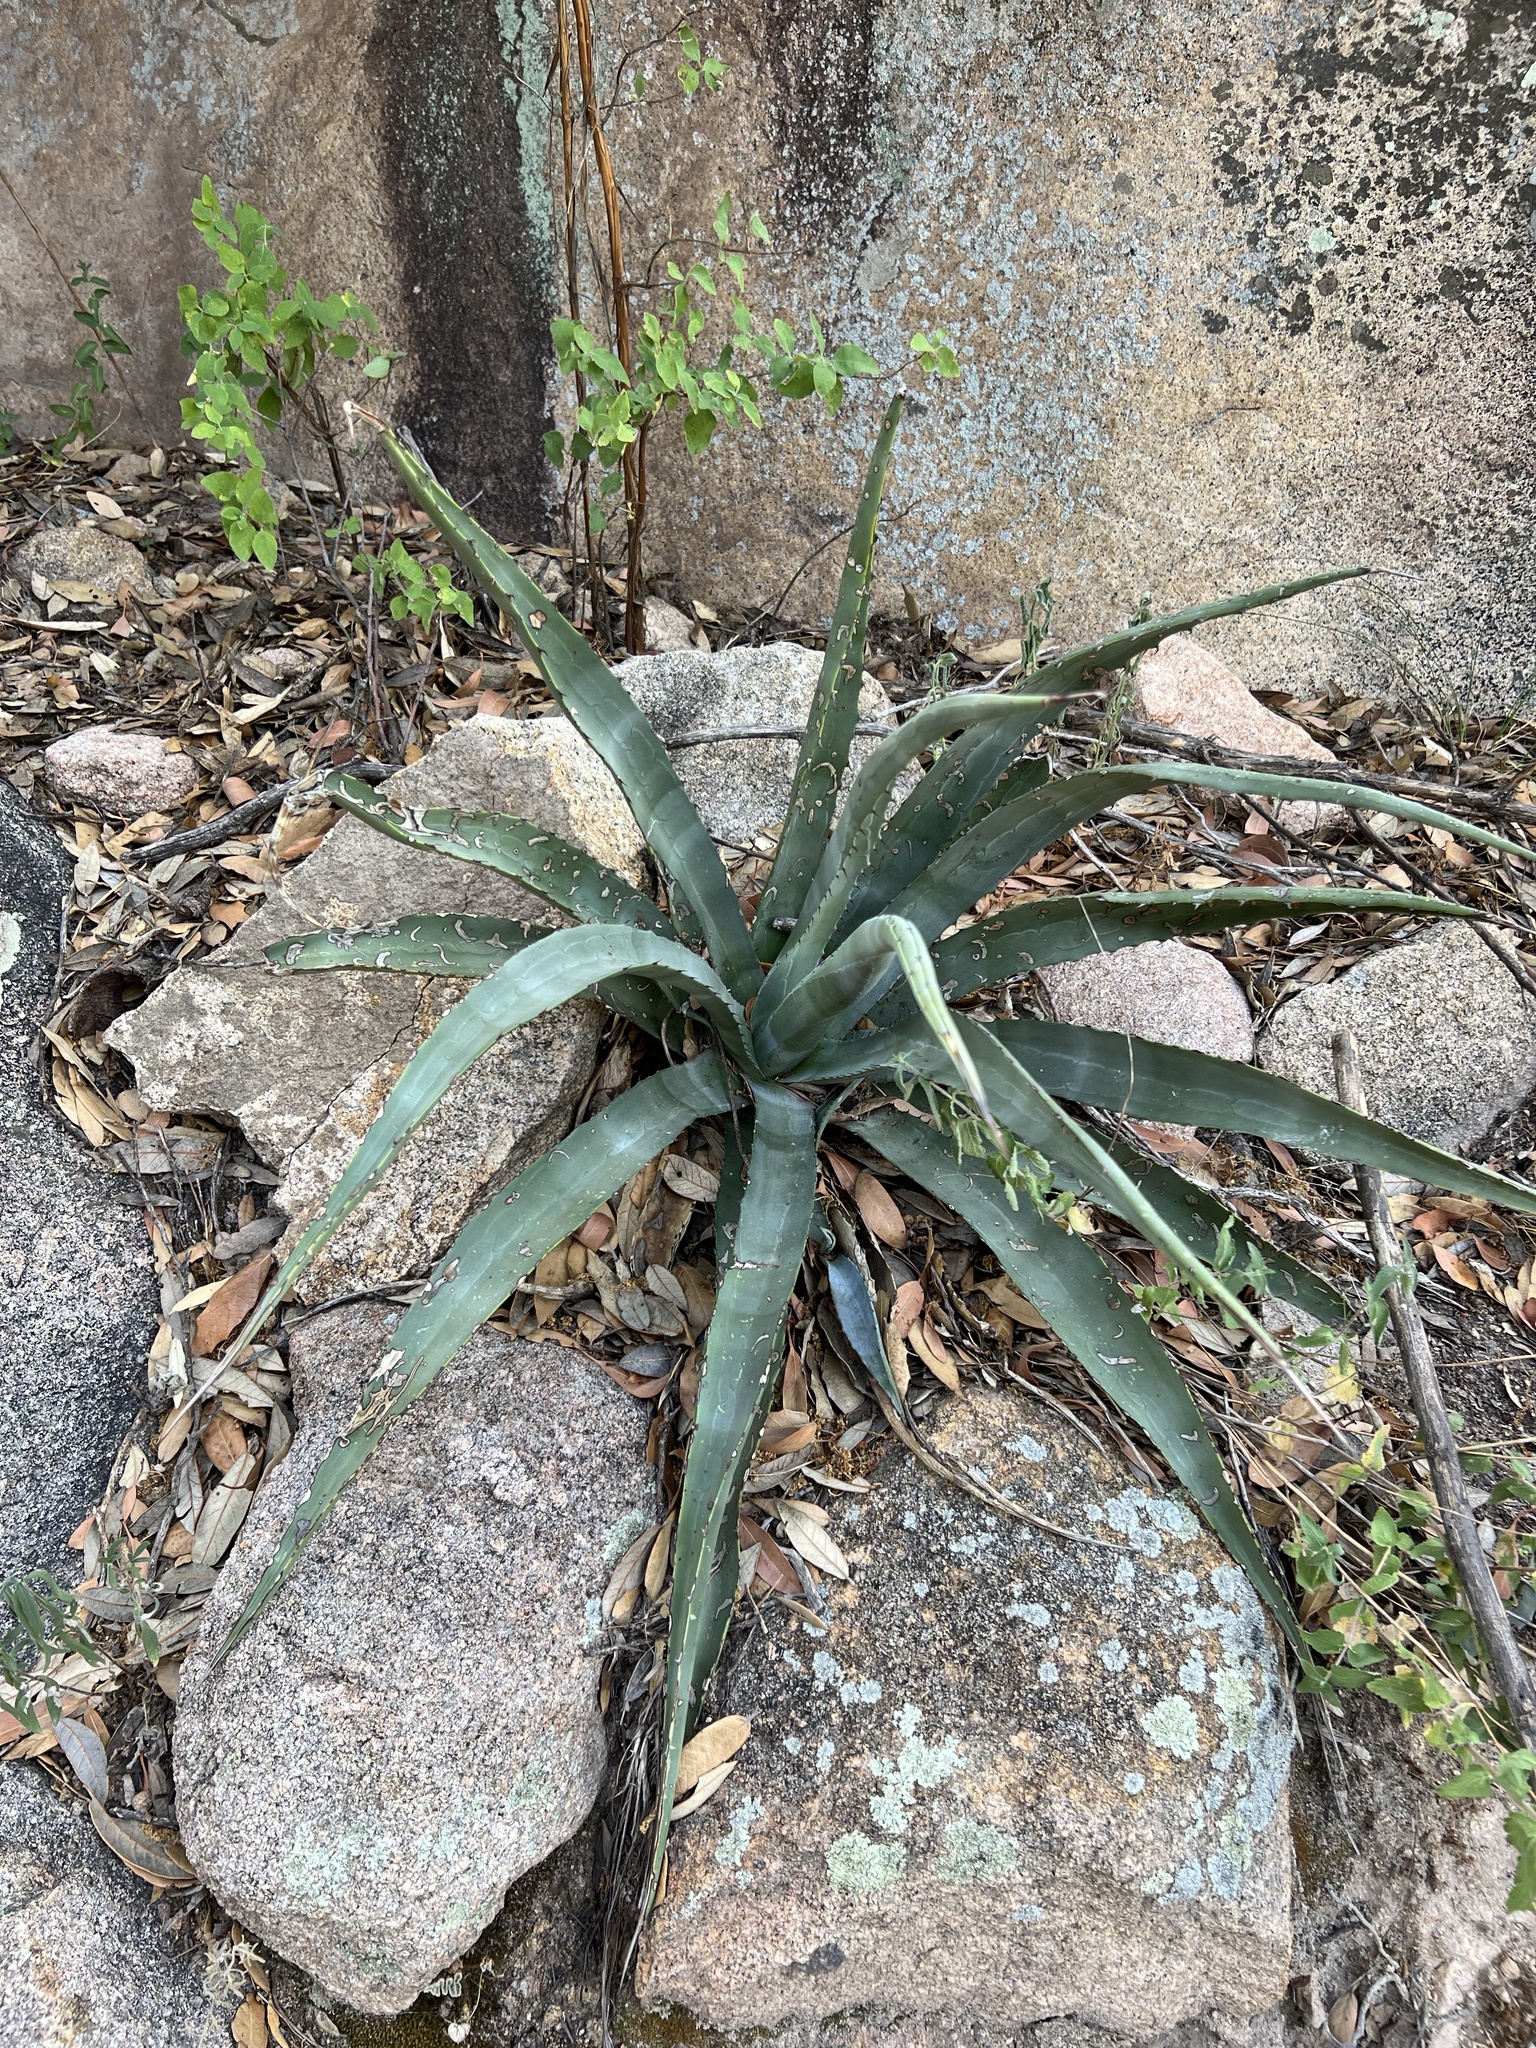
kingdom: Plantae
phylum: Tracheophyta
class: Liliopsida
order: Asparagales
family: Asparagaceae
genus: Agave
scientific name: Agave palmeri
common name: Palmer agave
